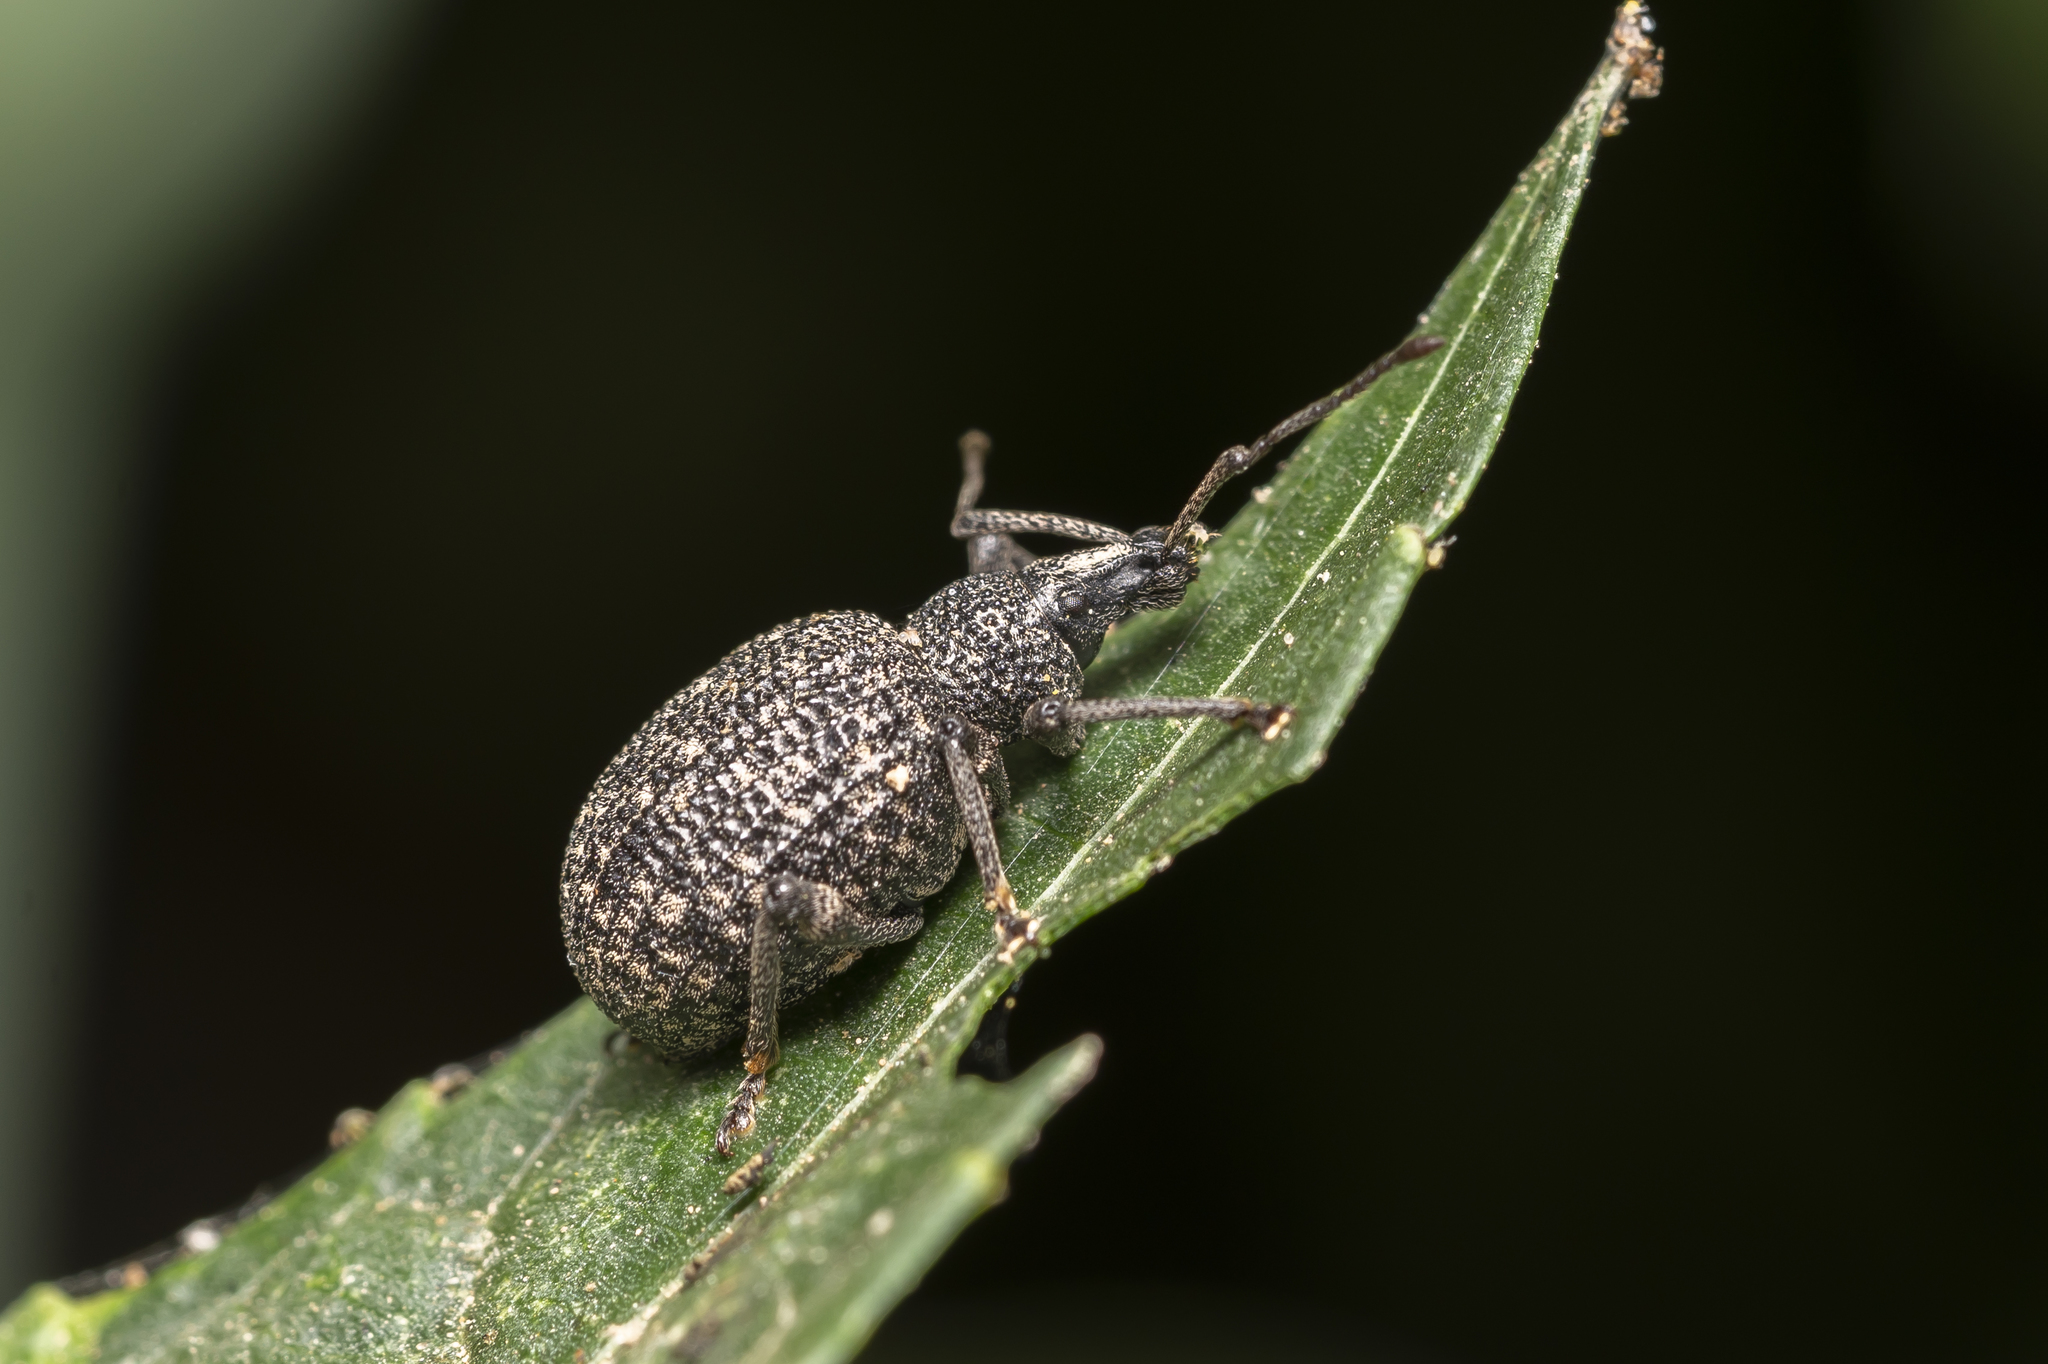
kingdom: Animalia
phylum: Arthropoda
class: Insecta
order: Coleoptera
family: Curculionidae
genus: Otiorhynchus
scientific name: Otiorhynchus obesus
